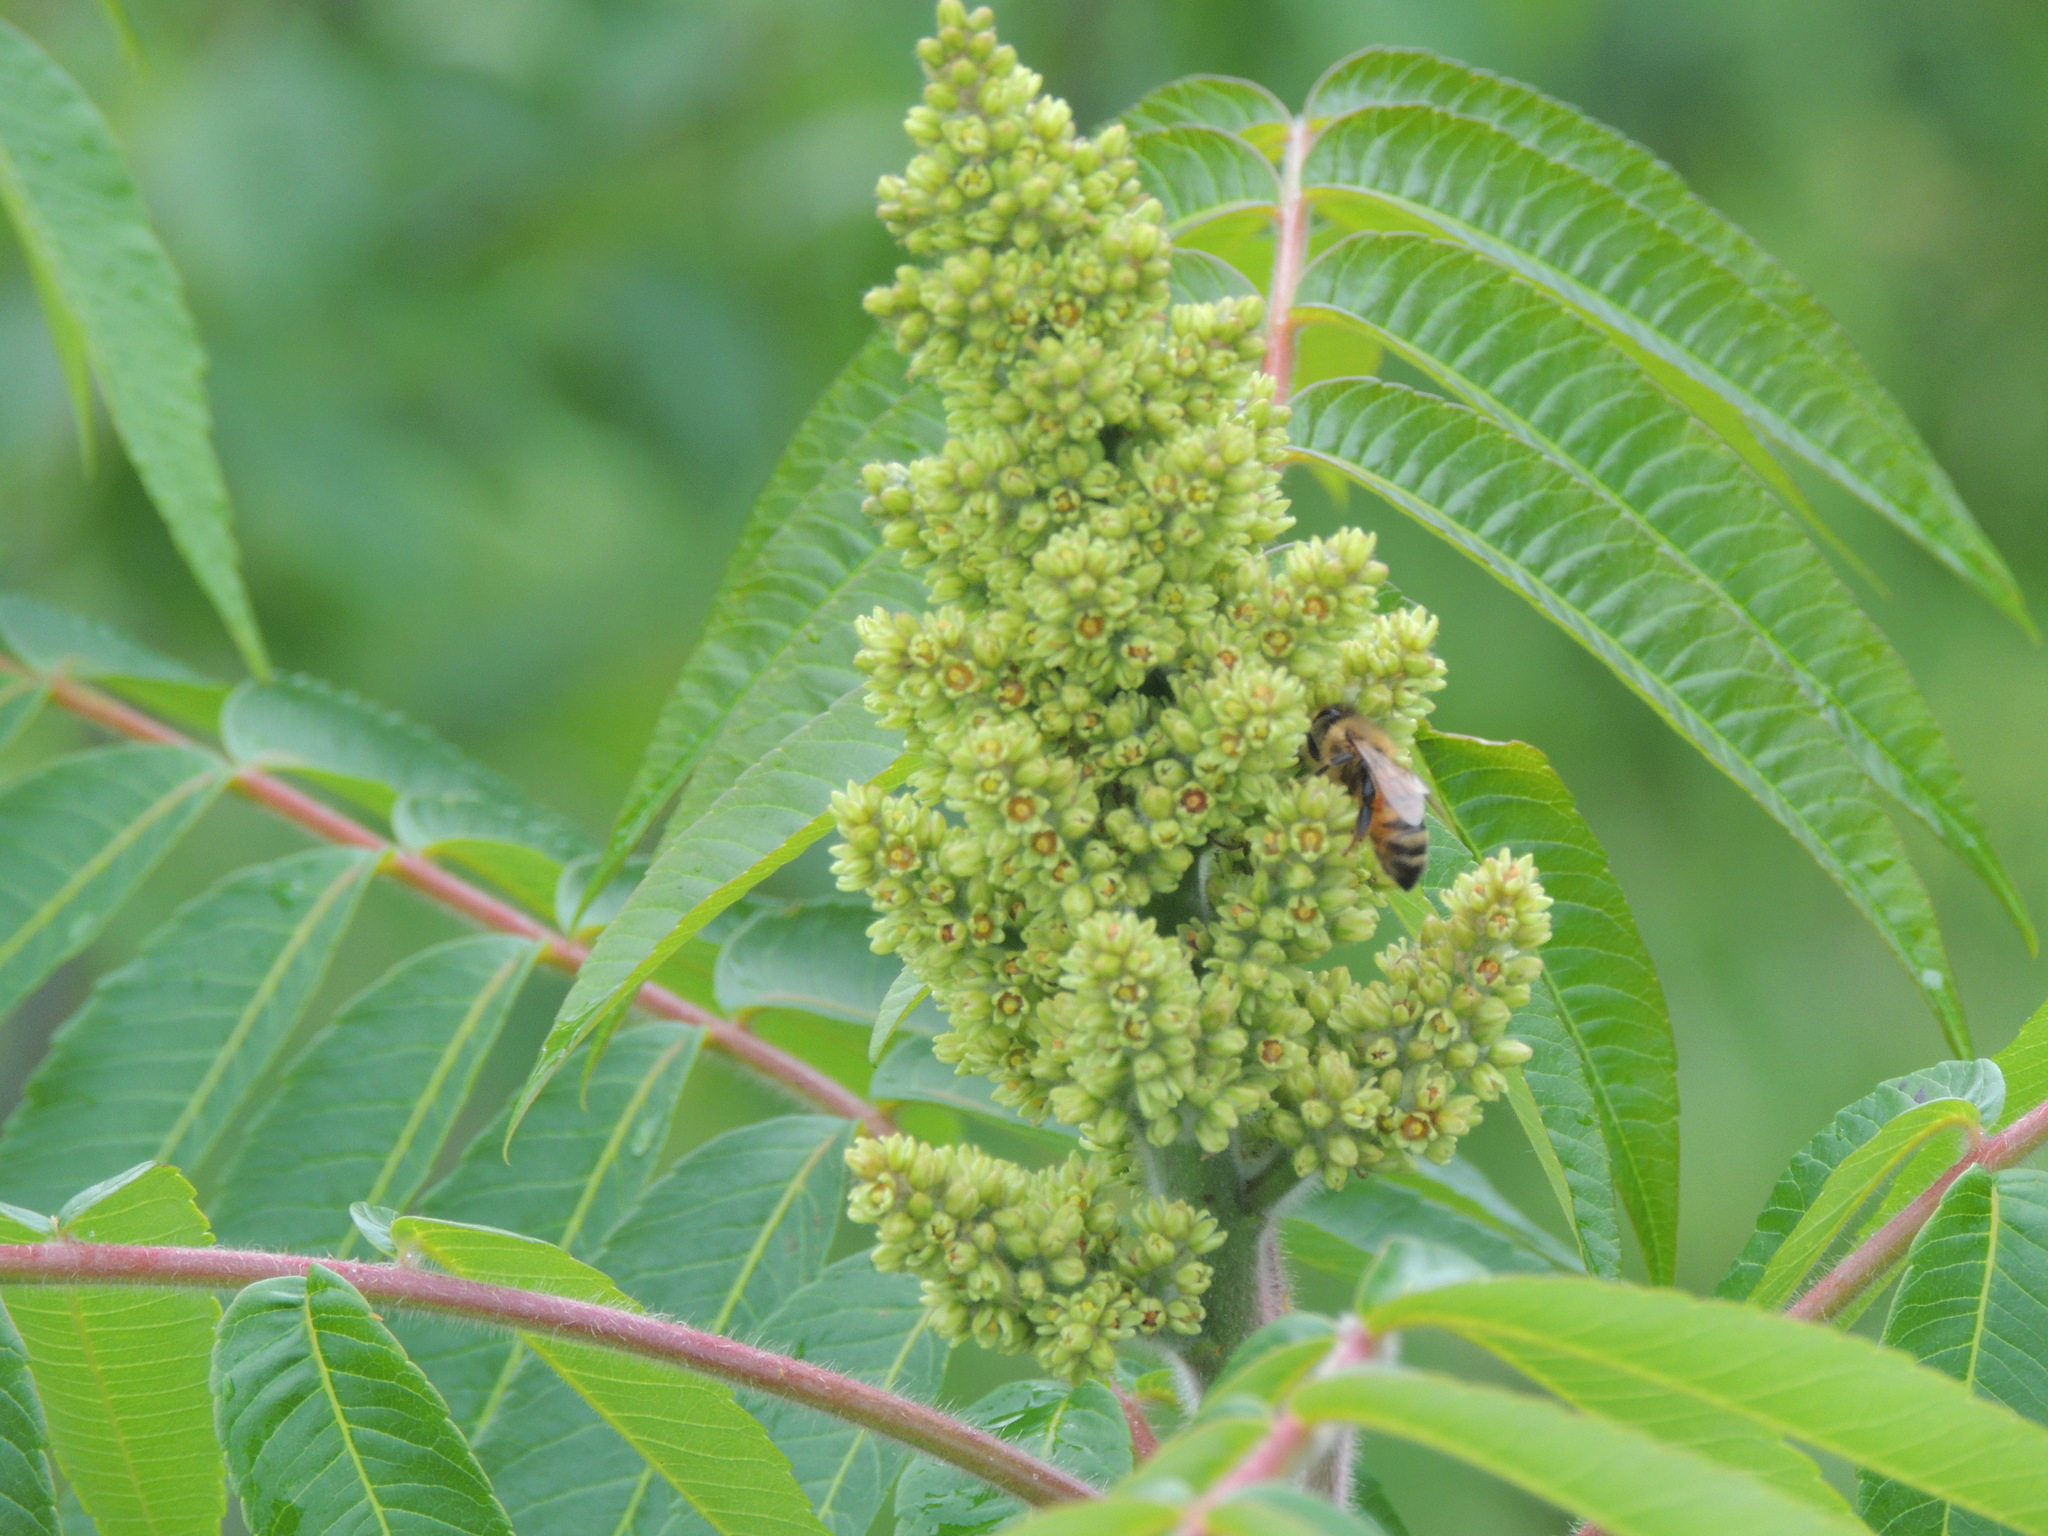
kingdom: Animalia
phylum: Arthropoda
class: Insecta
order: Hymenoptera
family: Apidae
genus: Apis
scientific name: Apis mellifera
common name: Honey bee
